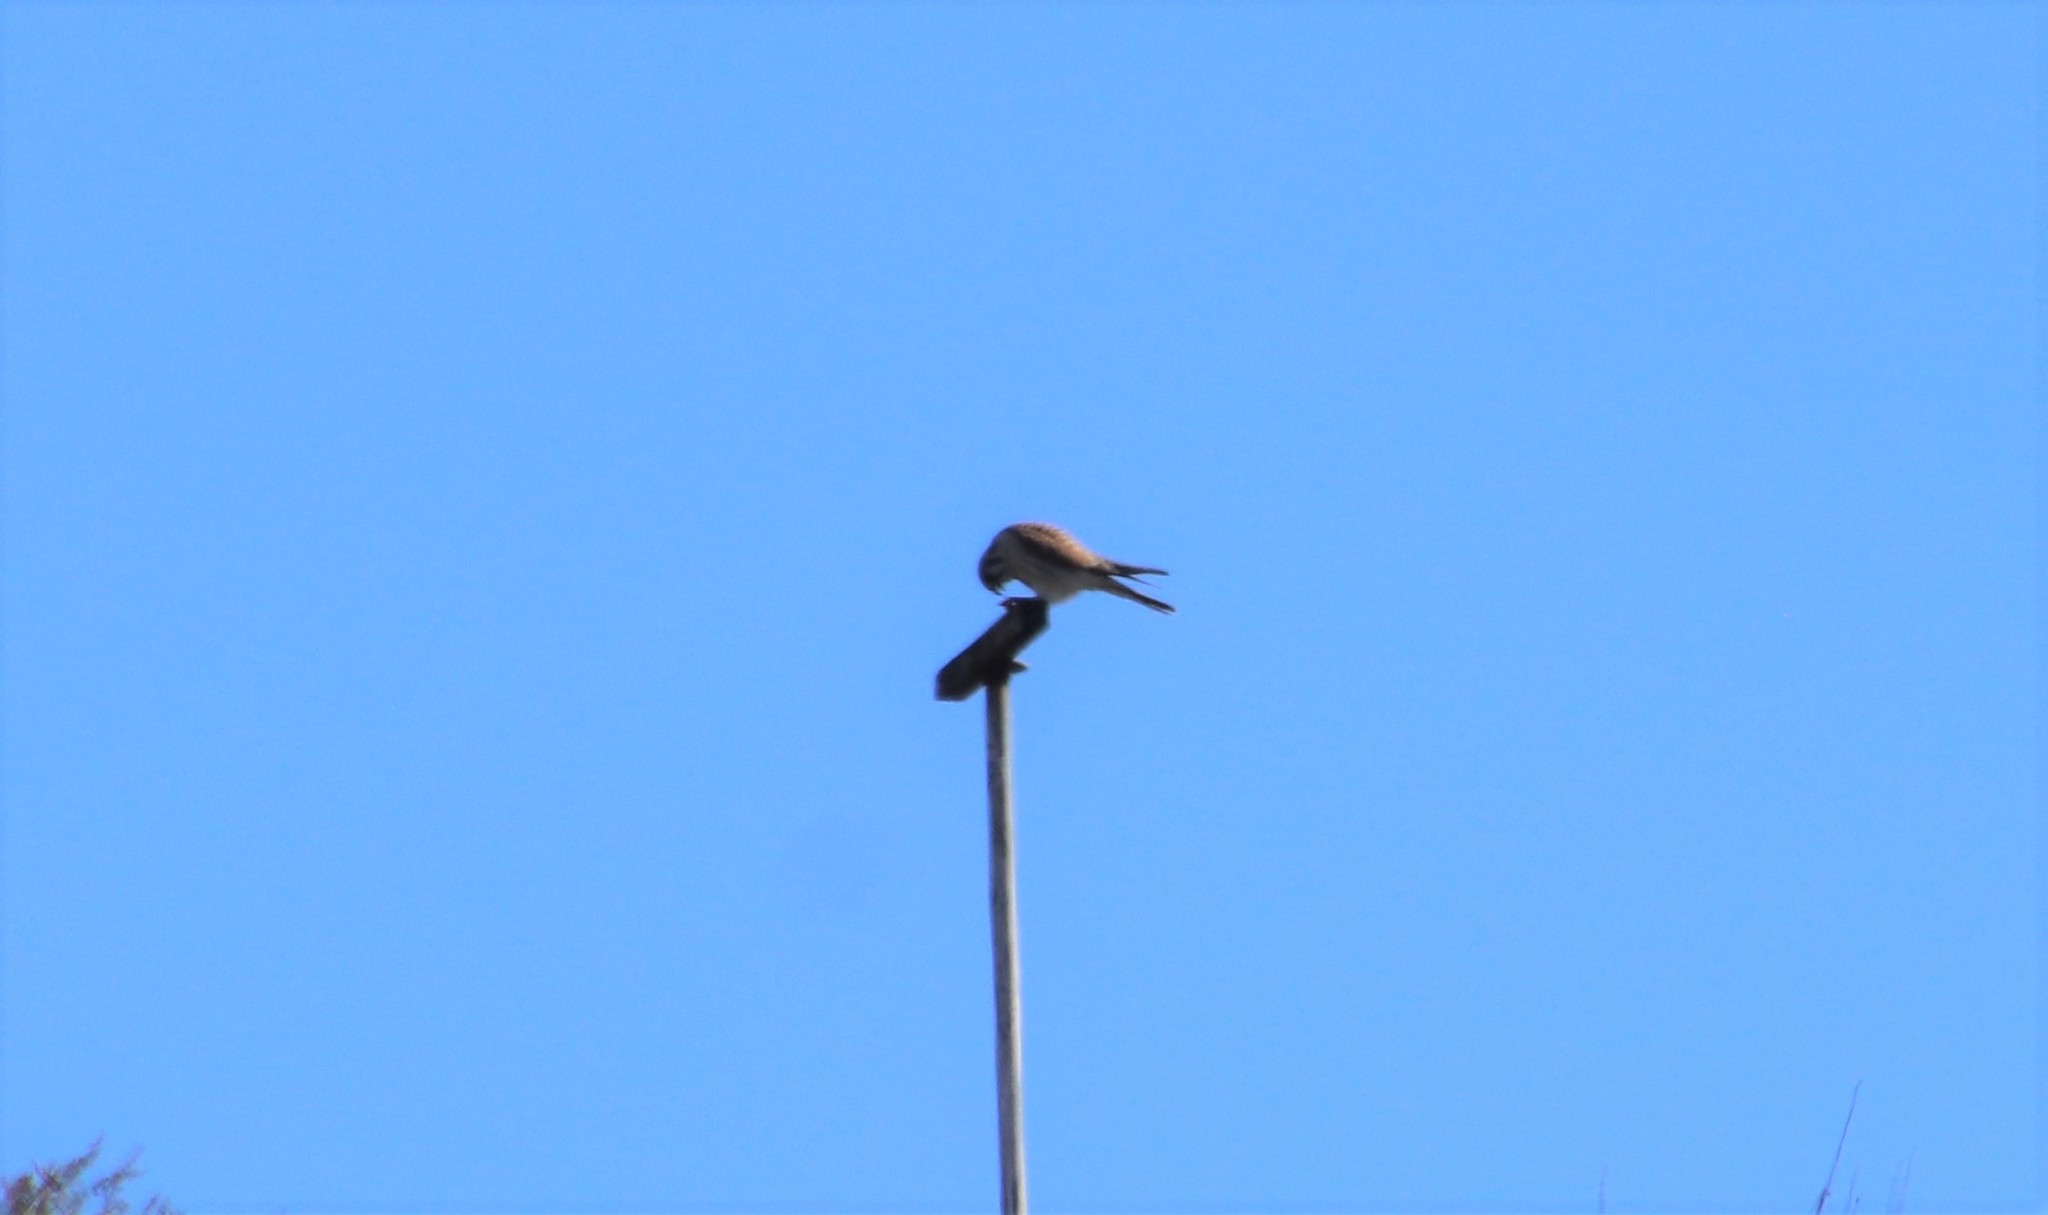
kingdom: Animalia
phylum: Chordata
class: Aves
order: Falconiformes
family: Falconidae
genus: Falco
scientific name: Falco sparverius
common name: American kestrel
